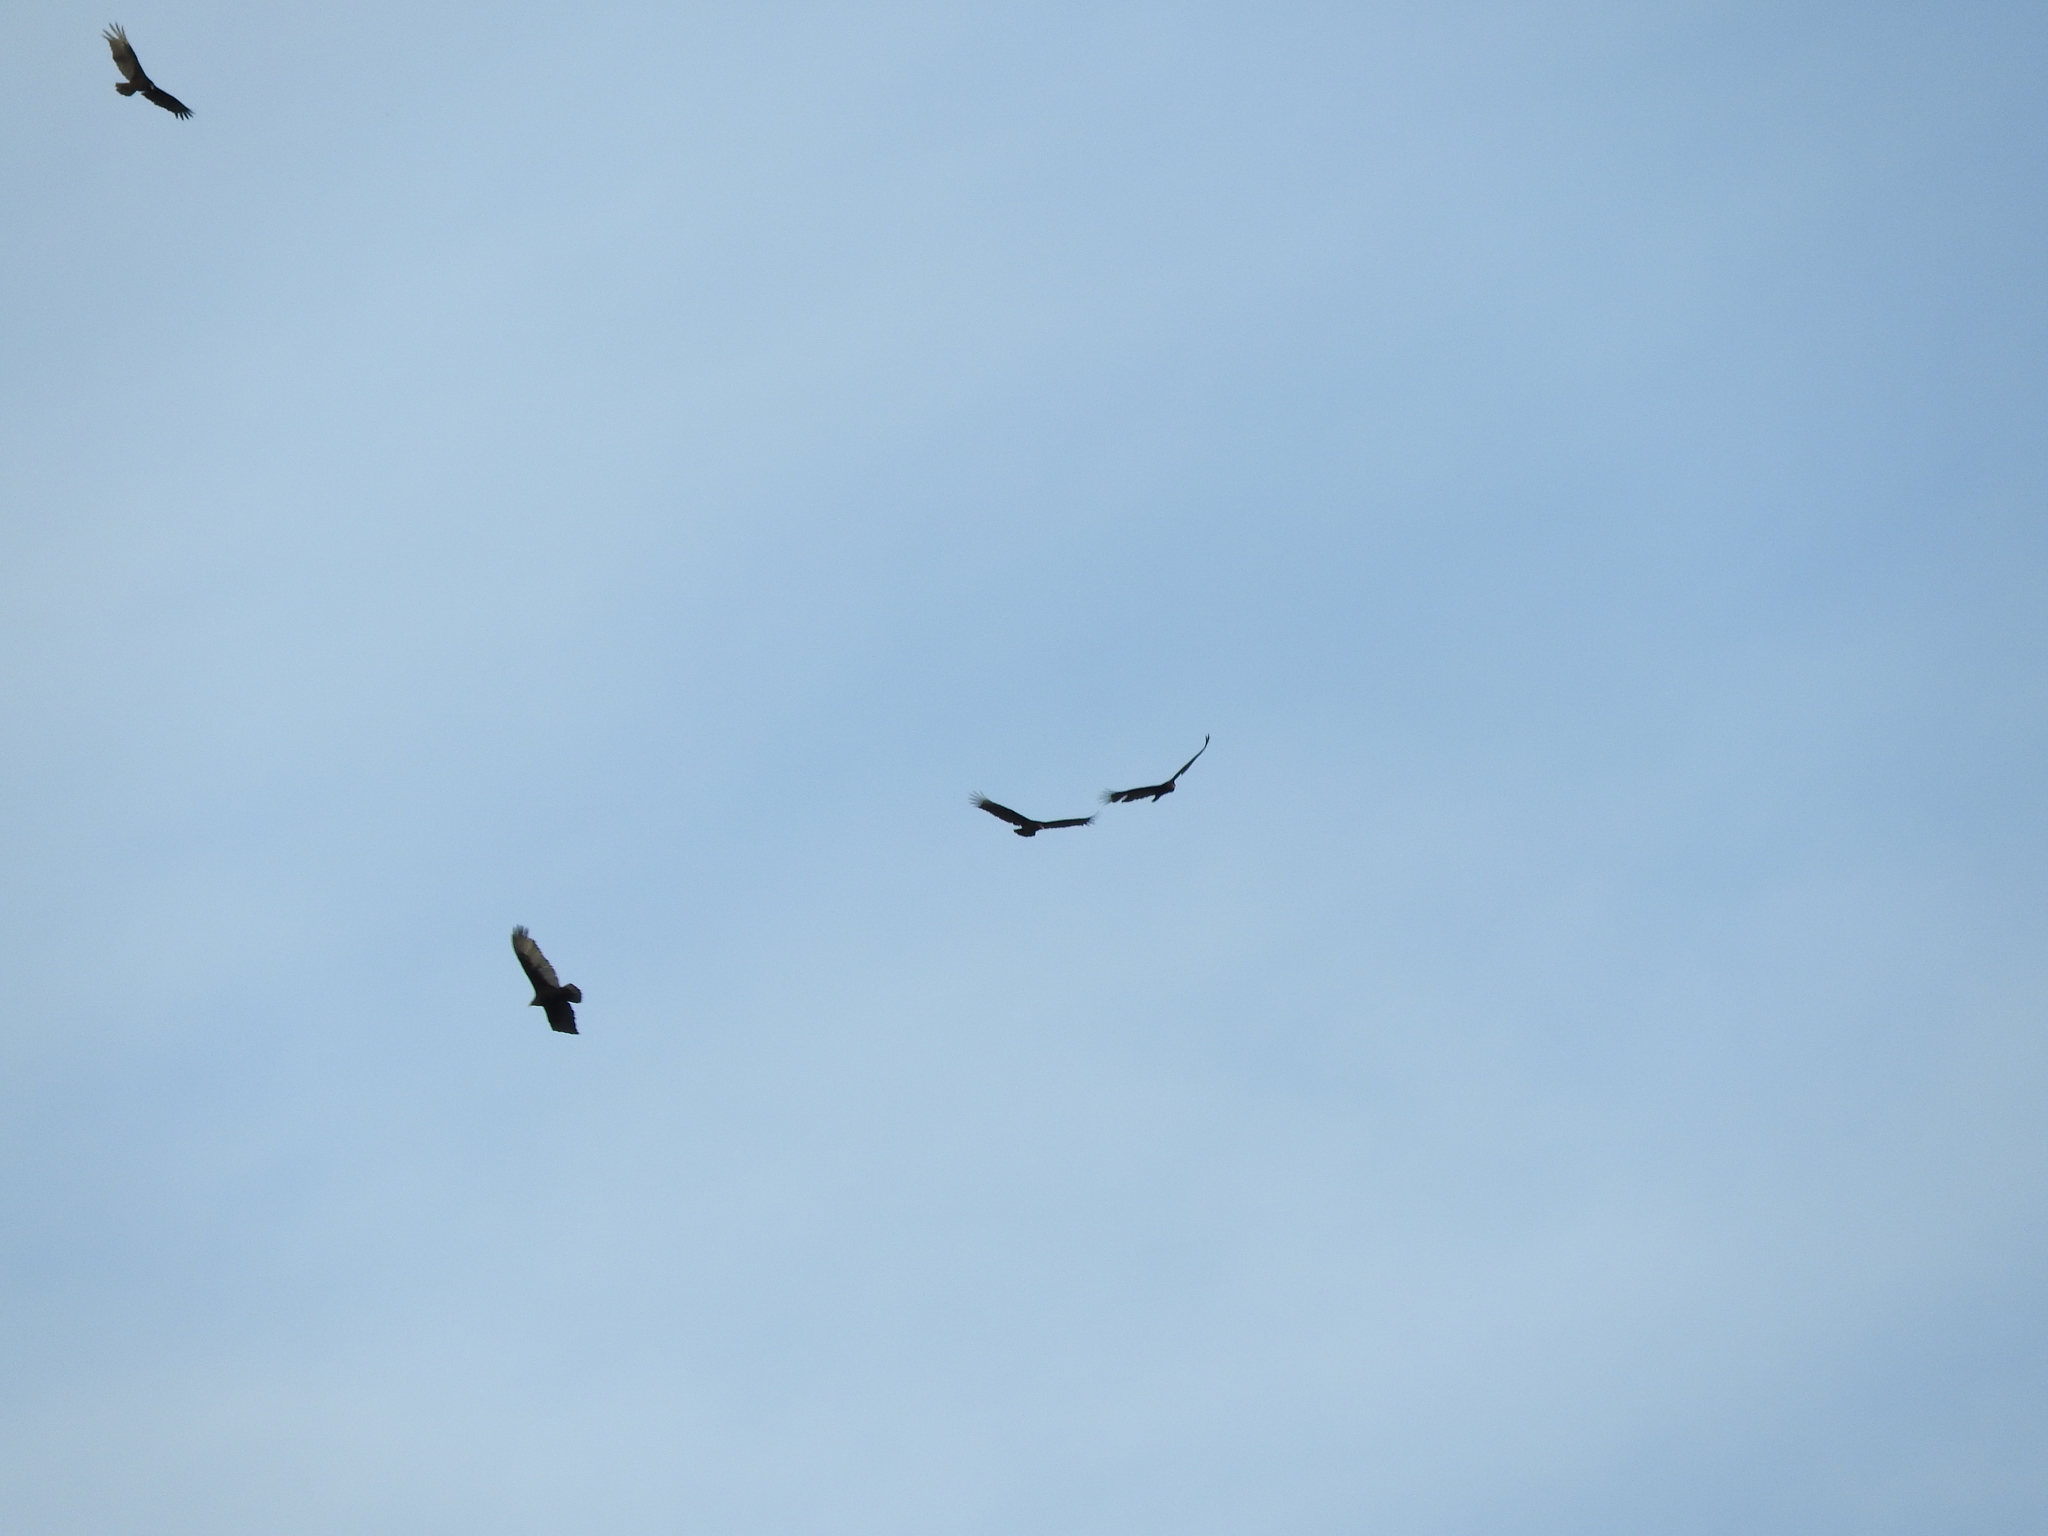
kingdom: Animalia
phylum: Chordata
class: Aves
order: Accipitriformes
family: Cathartidae
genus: Cathartes
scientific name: Cathartes aura
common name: Turkey vulture
